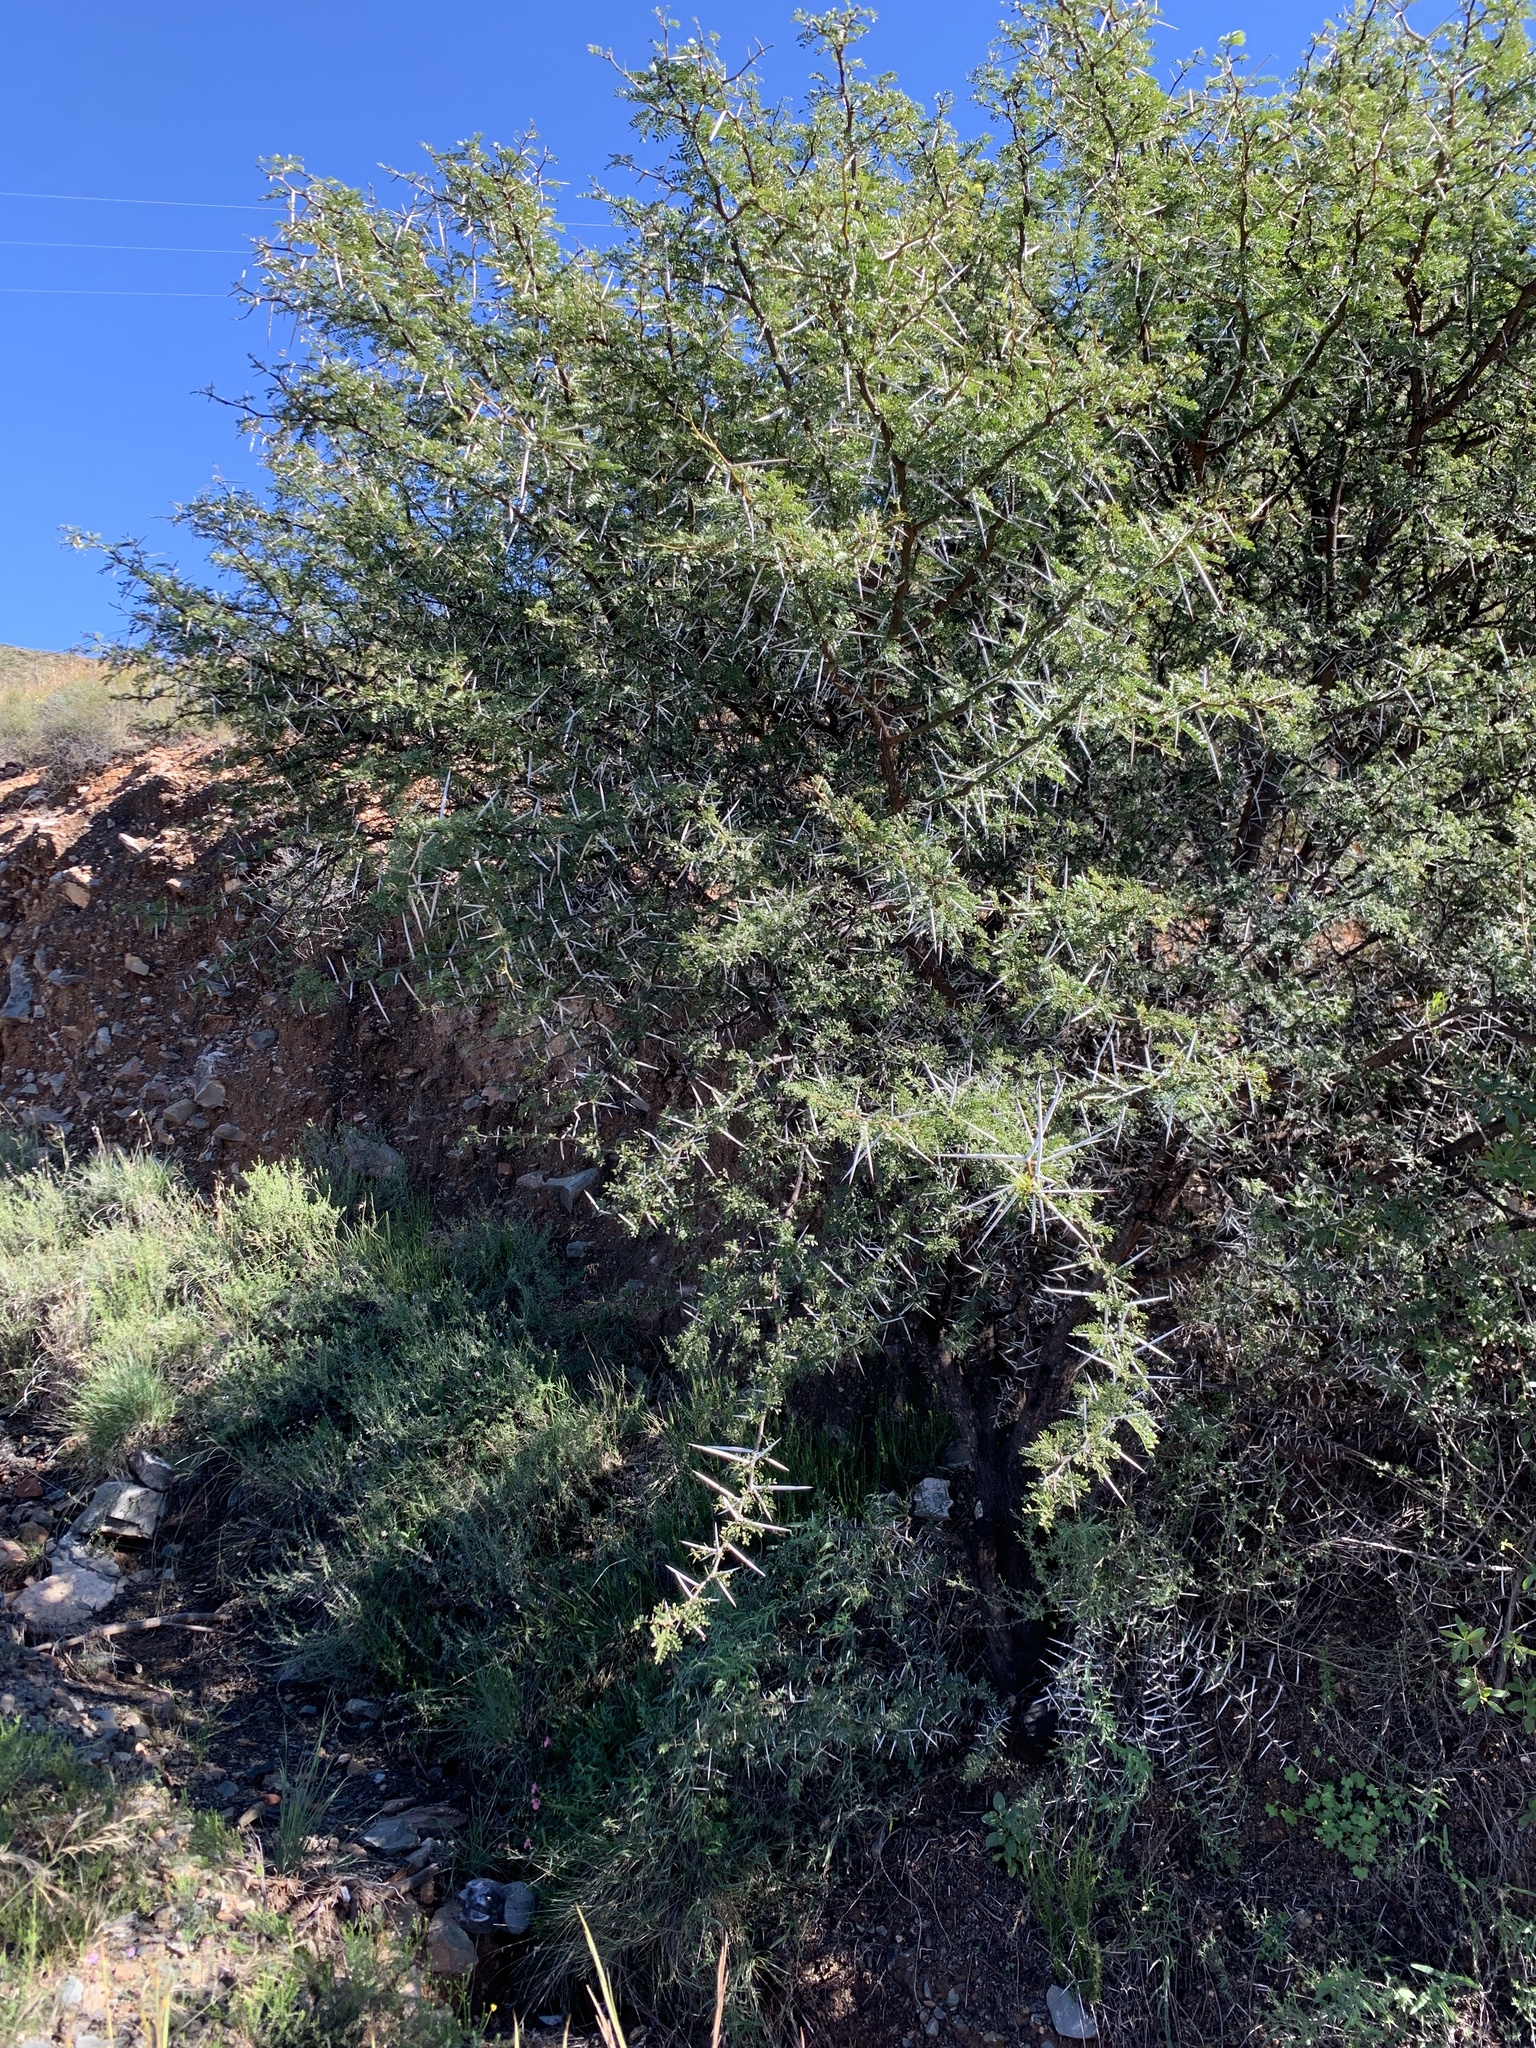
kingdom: Plantae
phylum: Tracheophyta
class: Magnoliopsida
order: Fabales
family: Fabaceae
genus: Vachellia
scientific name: Vachellia karroo
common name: Sweet thorn
